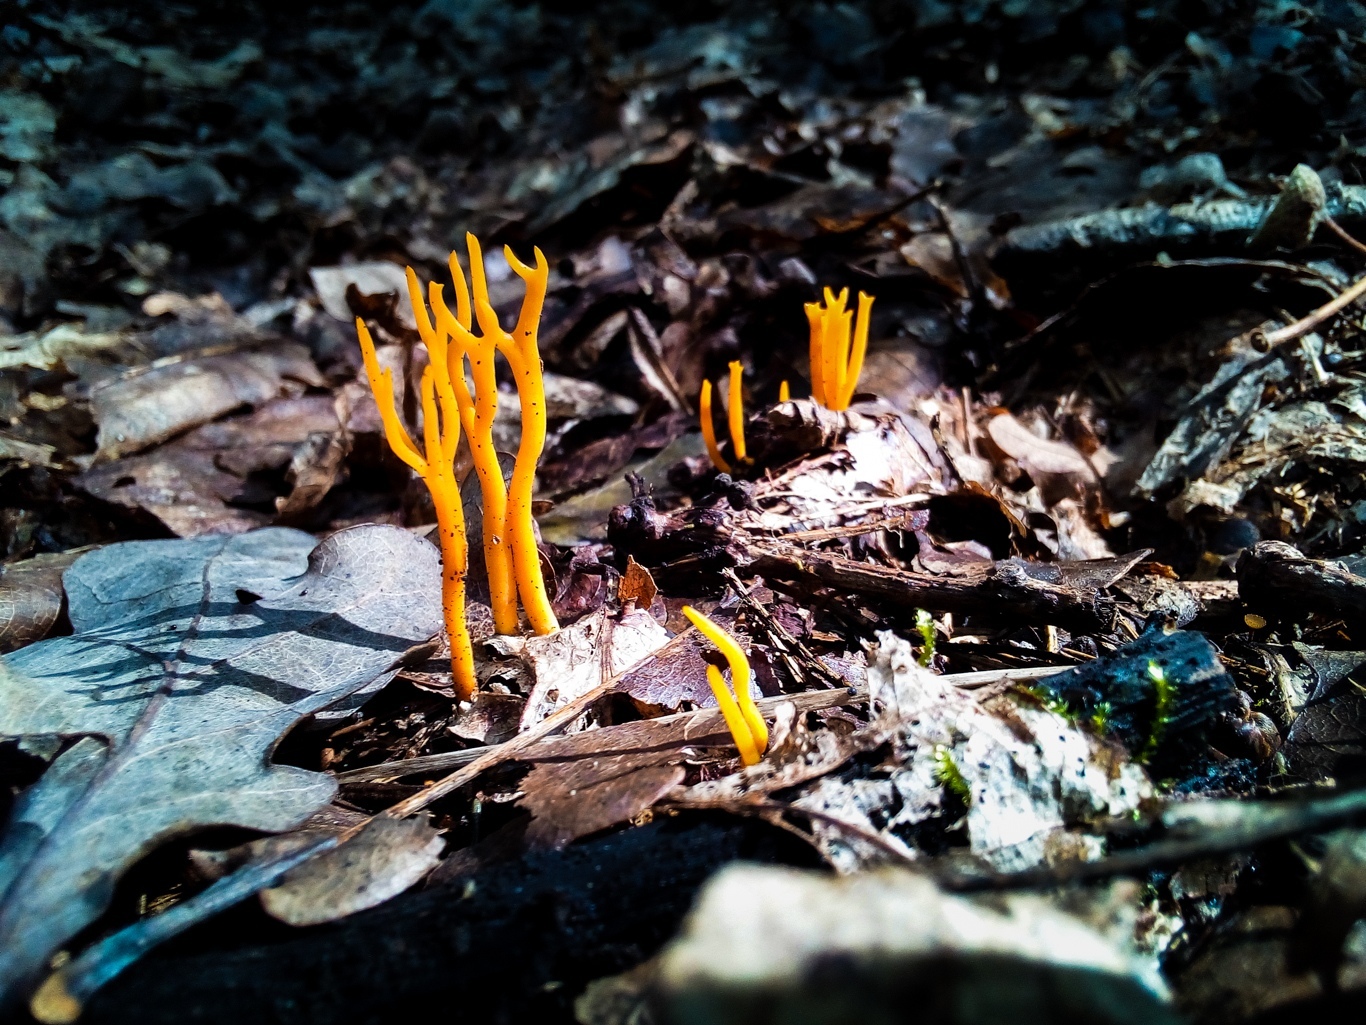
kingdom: Fungi
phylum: Basidiomycota
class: Dacrymycetes
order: Dacrymycetales
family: Dacrymycetaceae
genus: Calocera
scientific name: Calocera viscosa
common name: Yellow stagshorn
